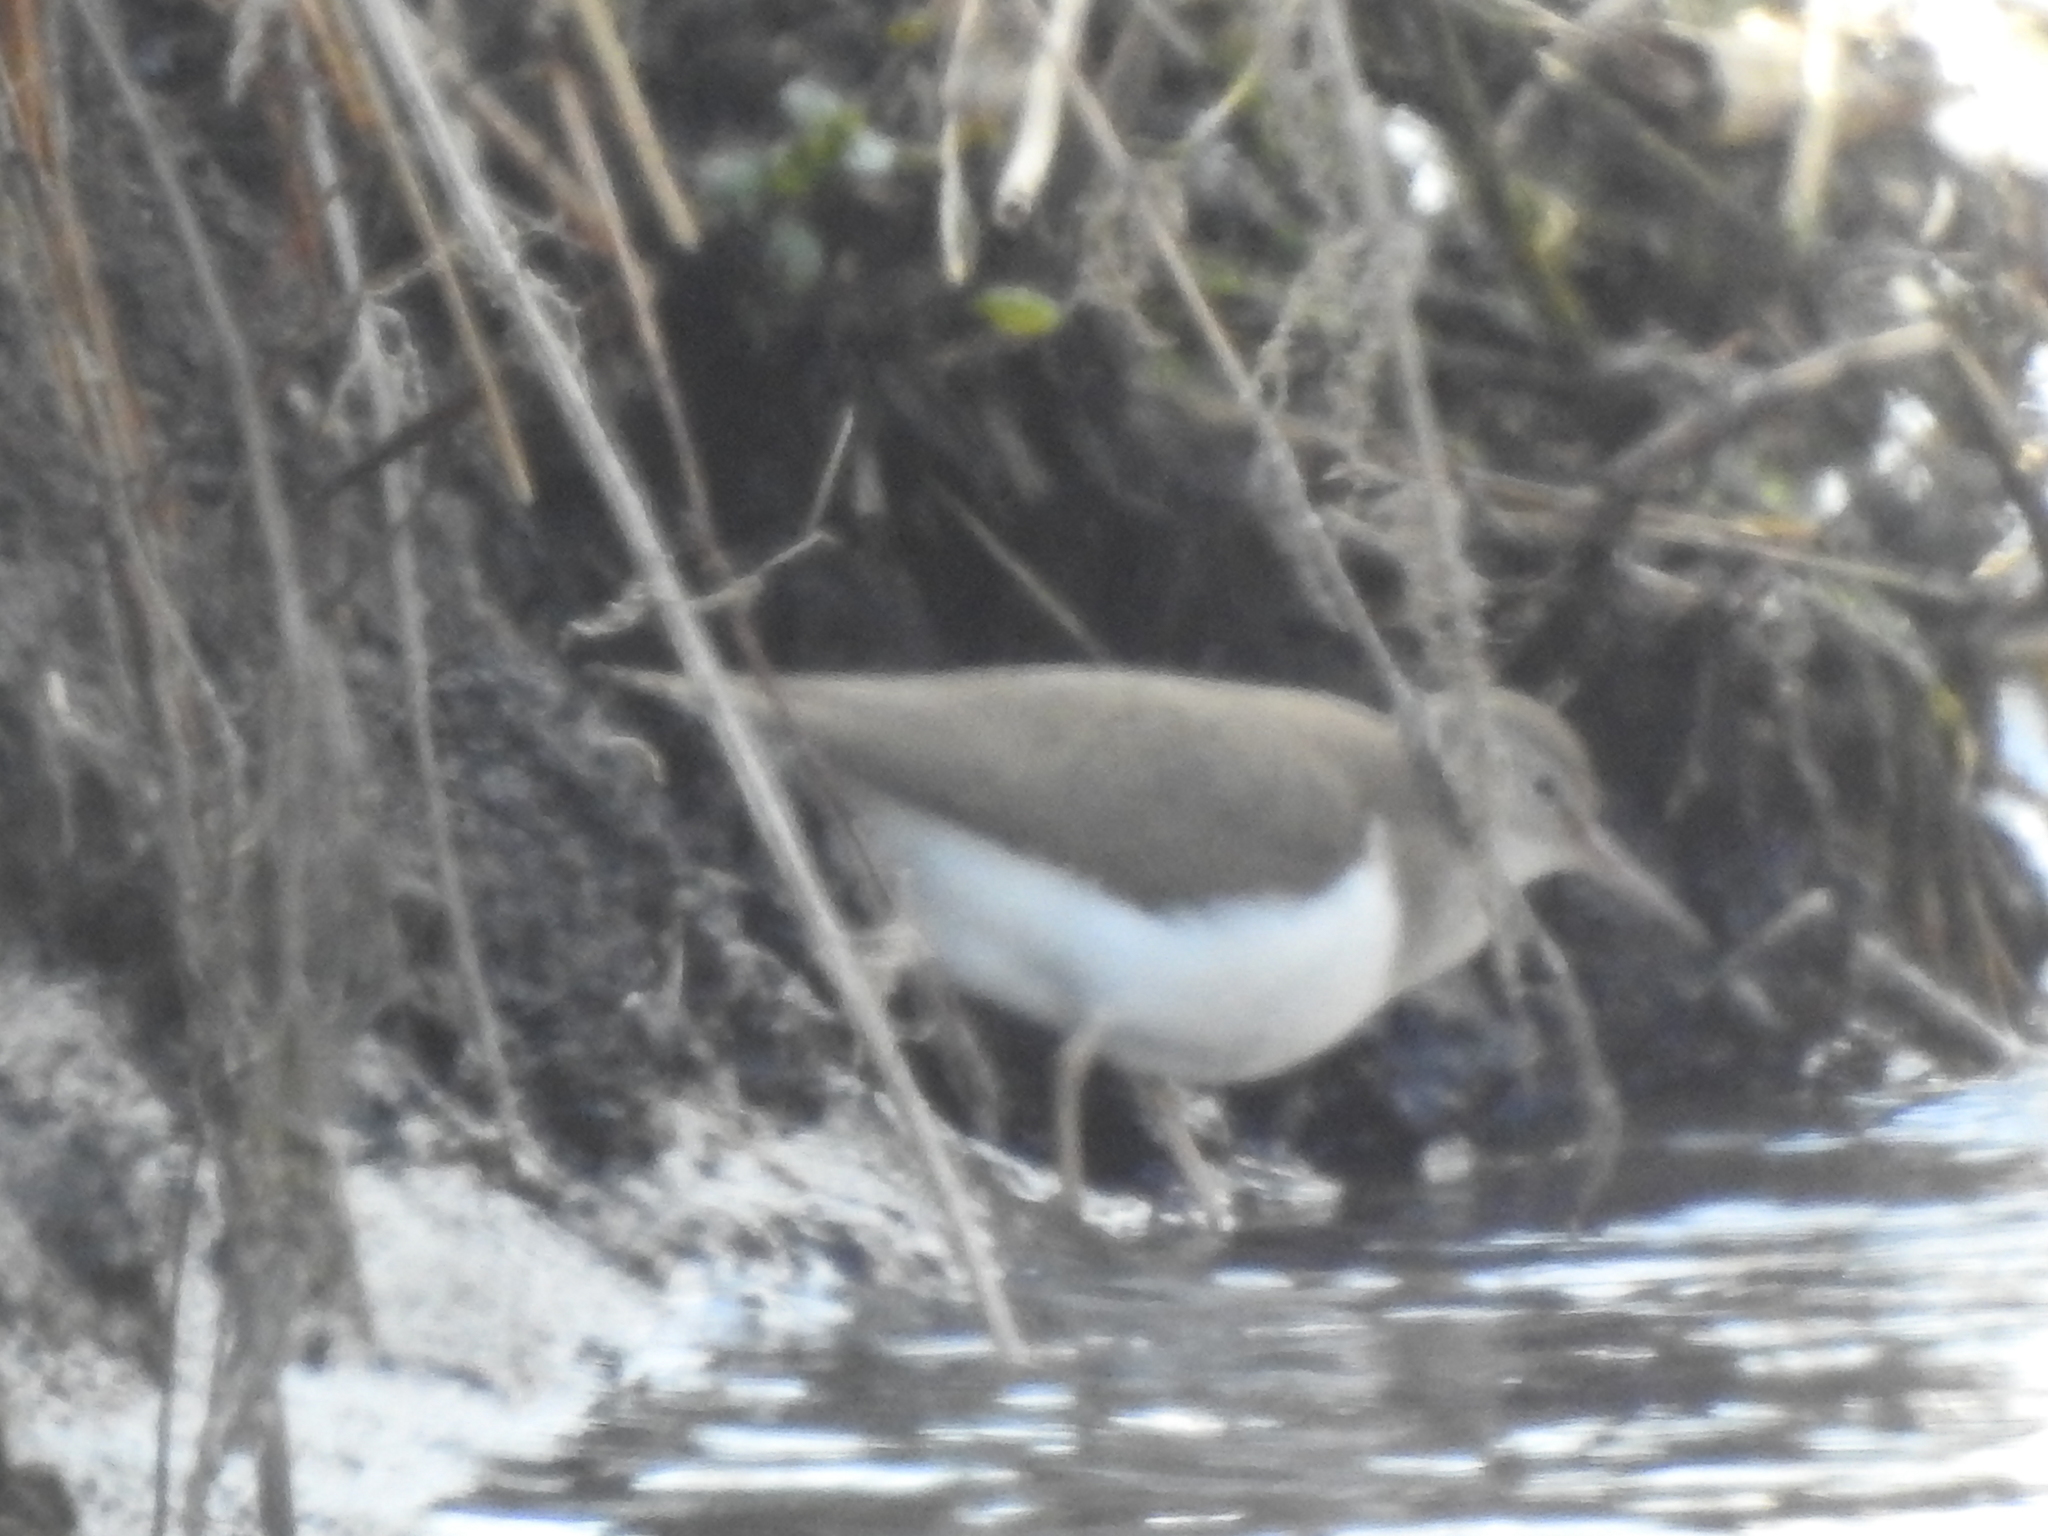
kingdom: Animalia
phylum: Chordata
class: Aves
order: Charadriiformes
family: Scolopacidae
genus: Actitis
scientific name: Actitis hypoleucos
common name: Common sandpiper
